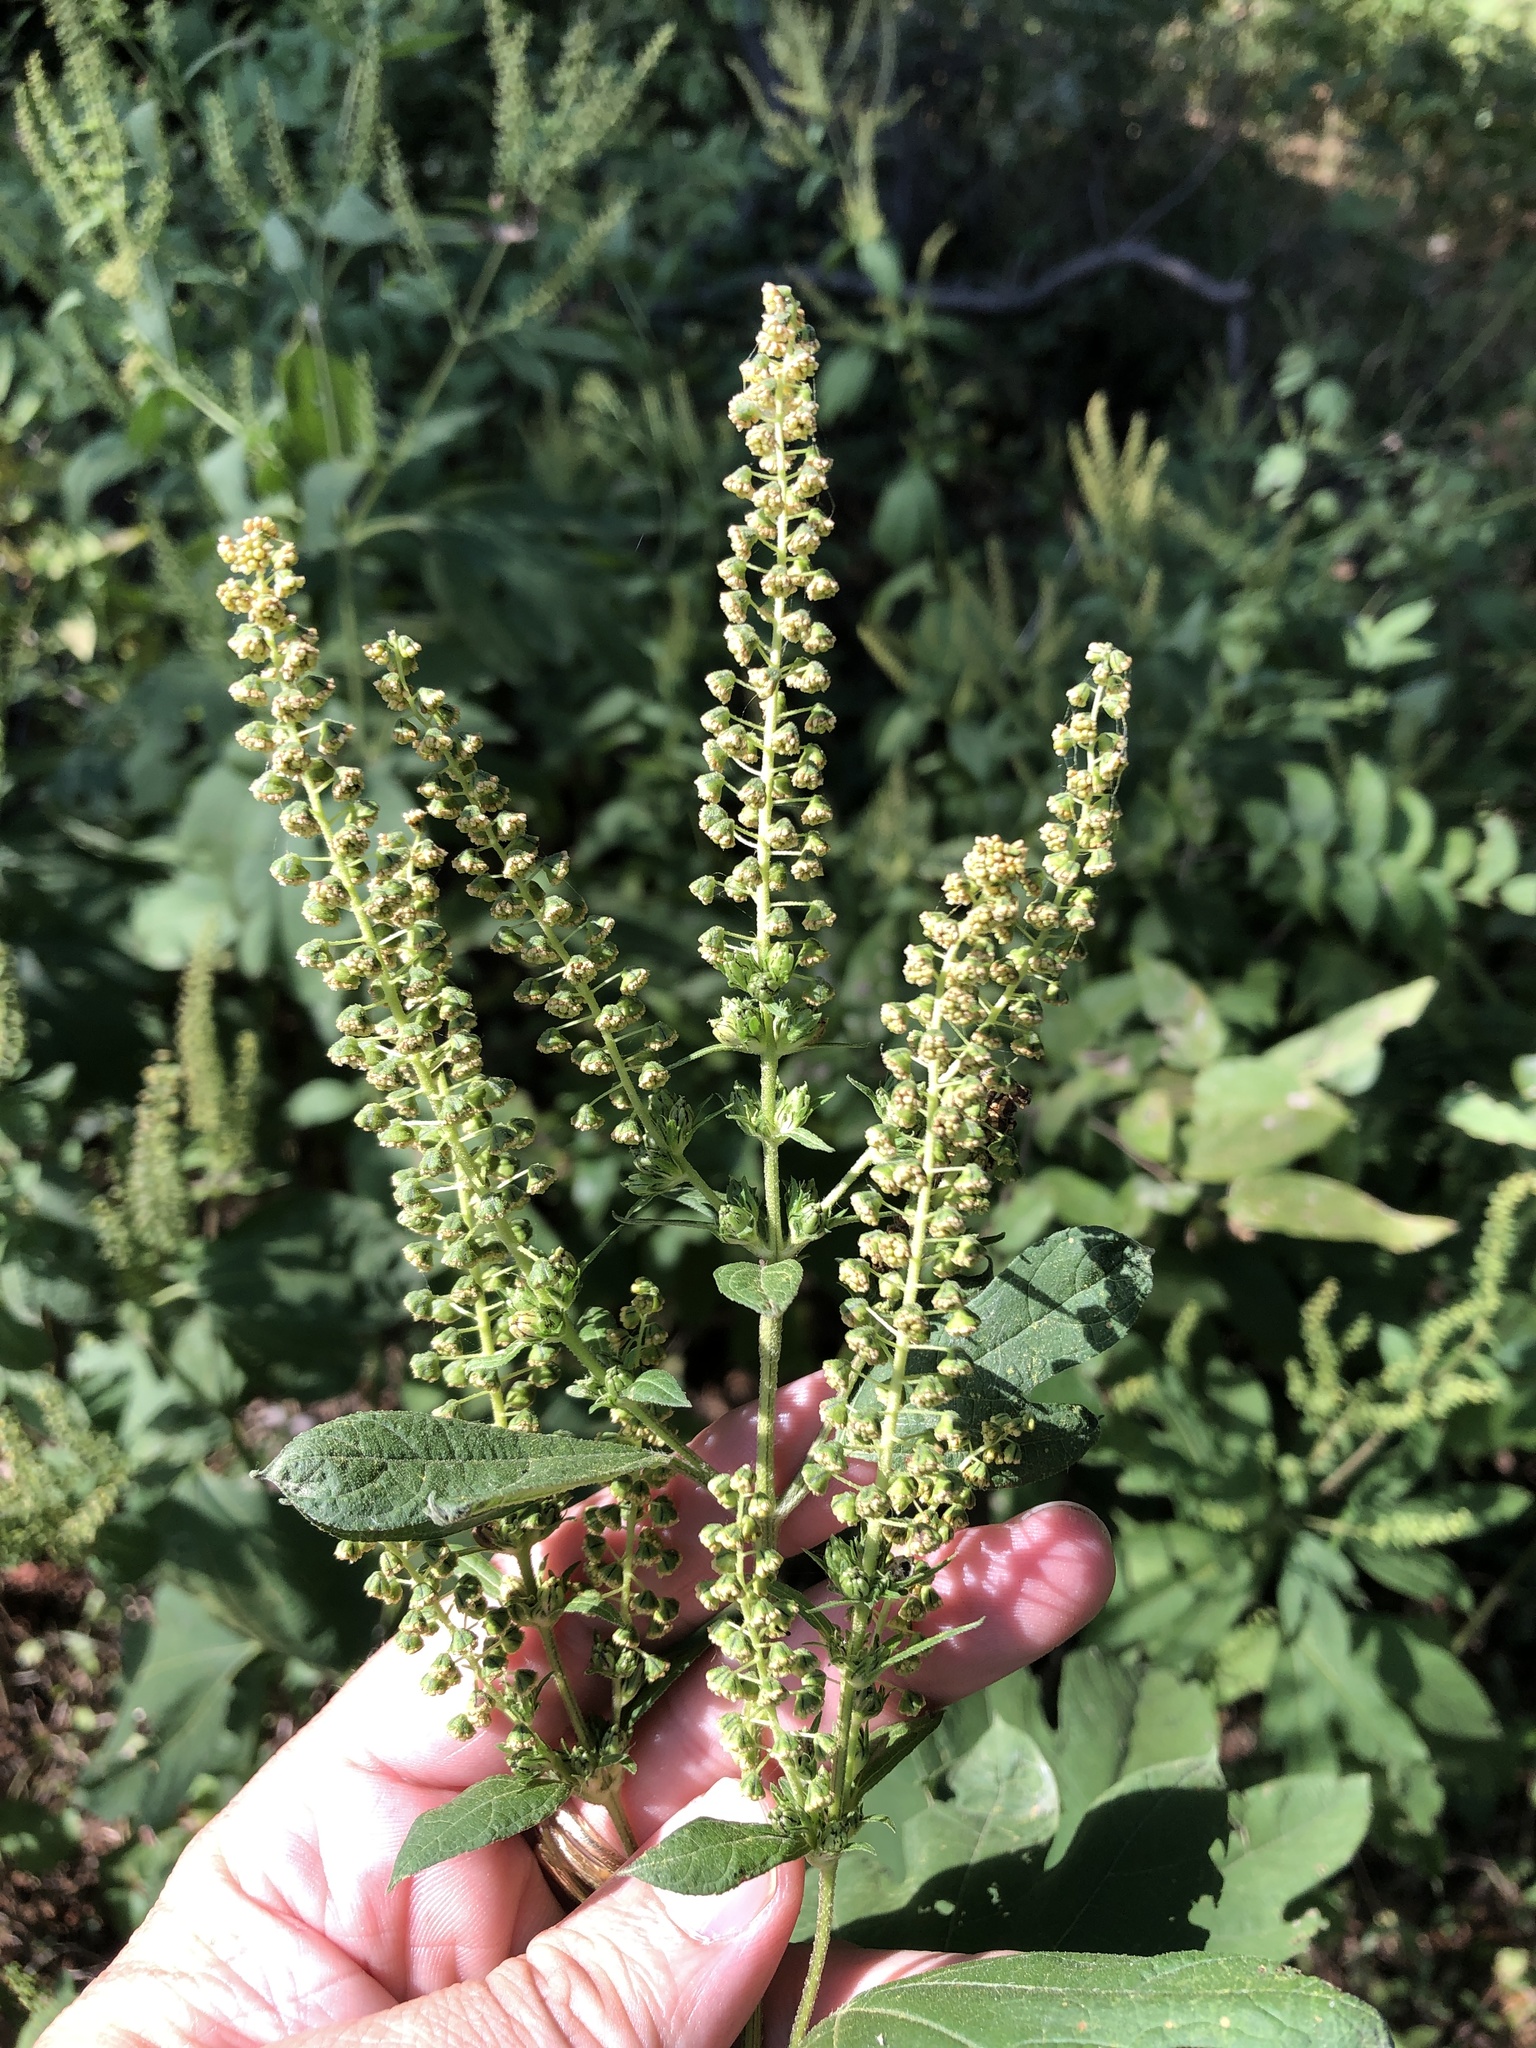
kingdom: Plantae
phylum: Tracheophyta
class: Magnoliopsida
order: Asterales
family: Asteraceae
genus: Ambrosia
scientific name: Ambrosia trifida
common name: Giant ragweed
